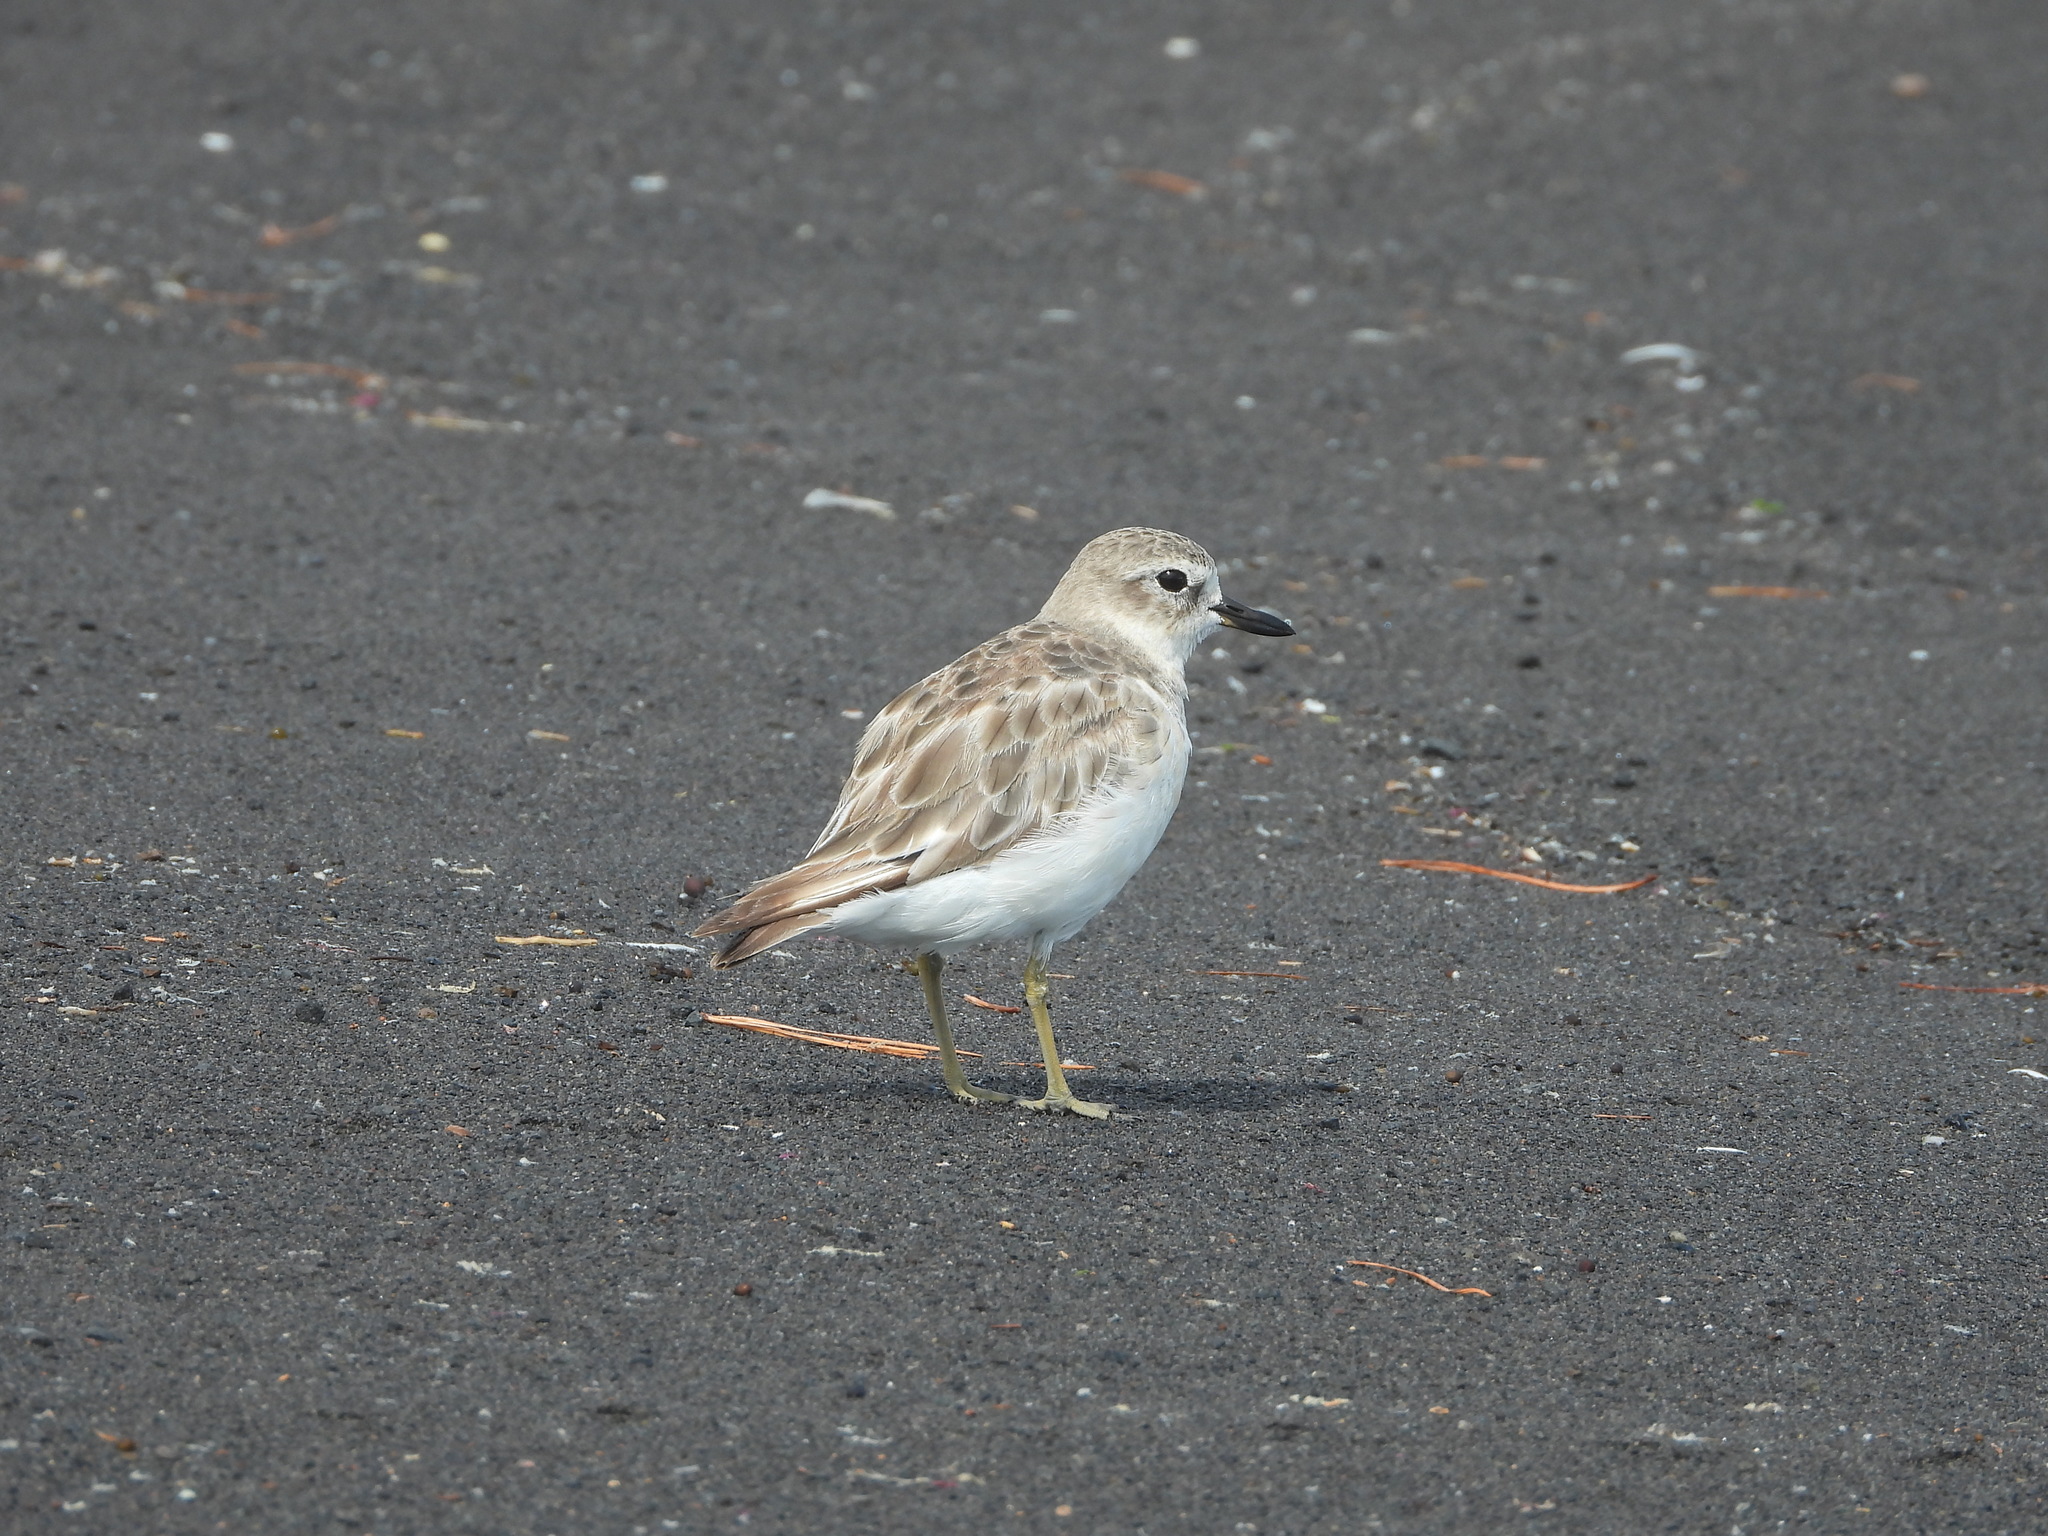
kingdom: Animalia
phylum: Chordata
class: Aves
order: Charadriiformes
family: Charadriidae
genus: Anarhynchus
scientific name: Anarhynchus
